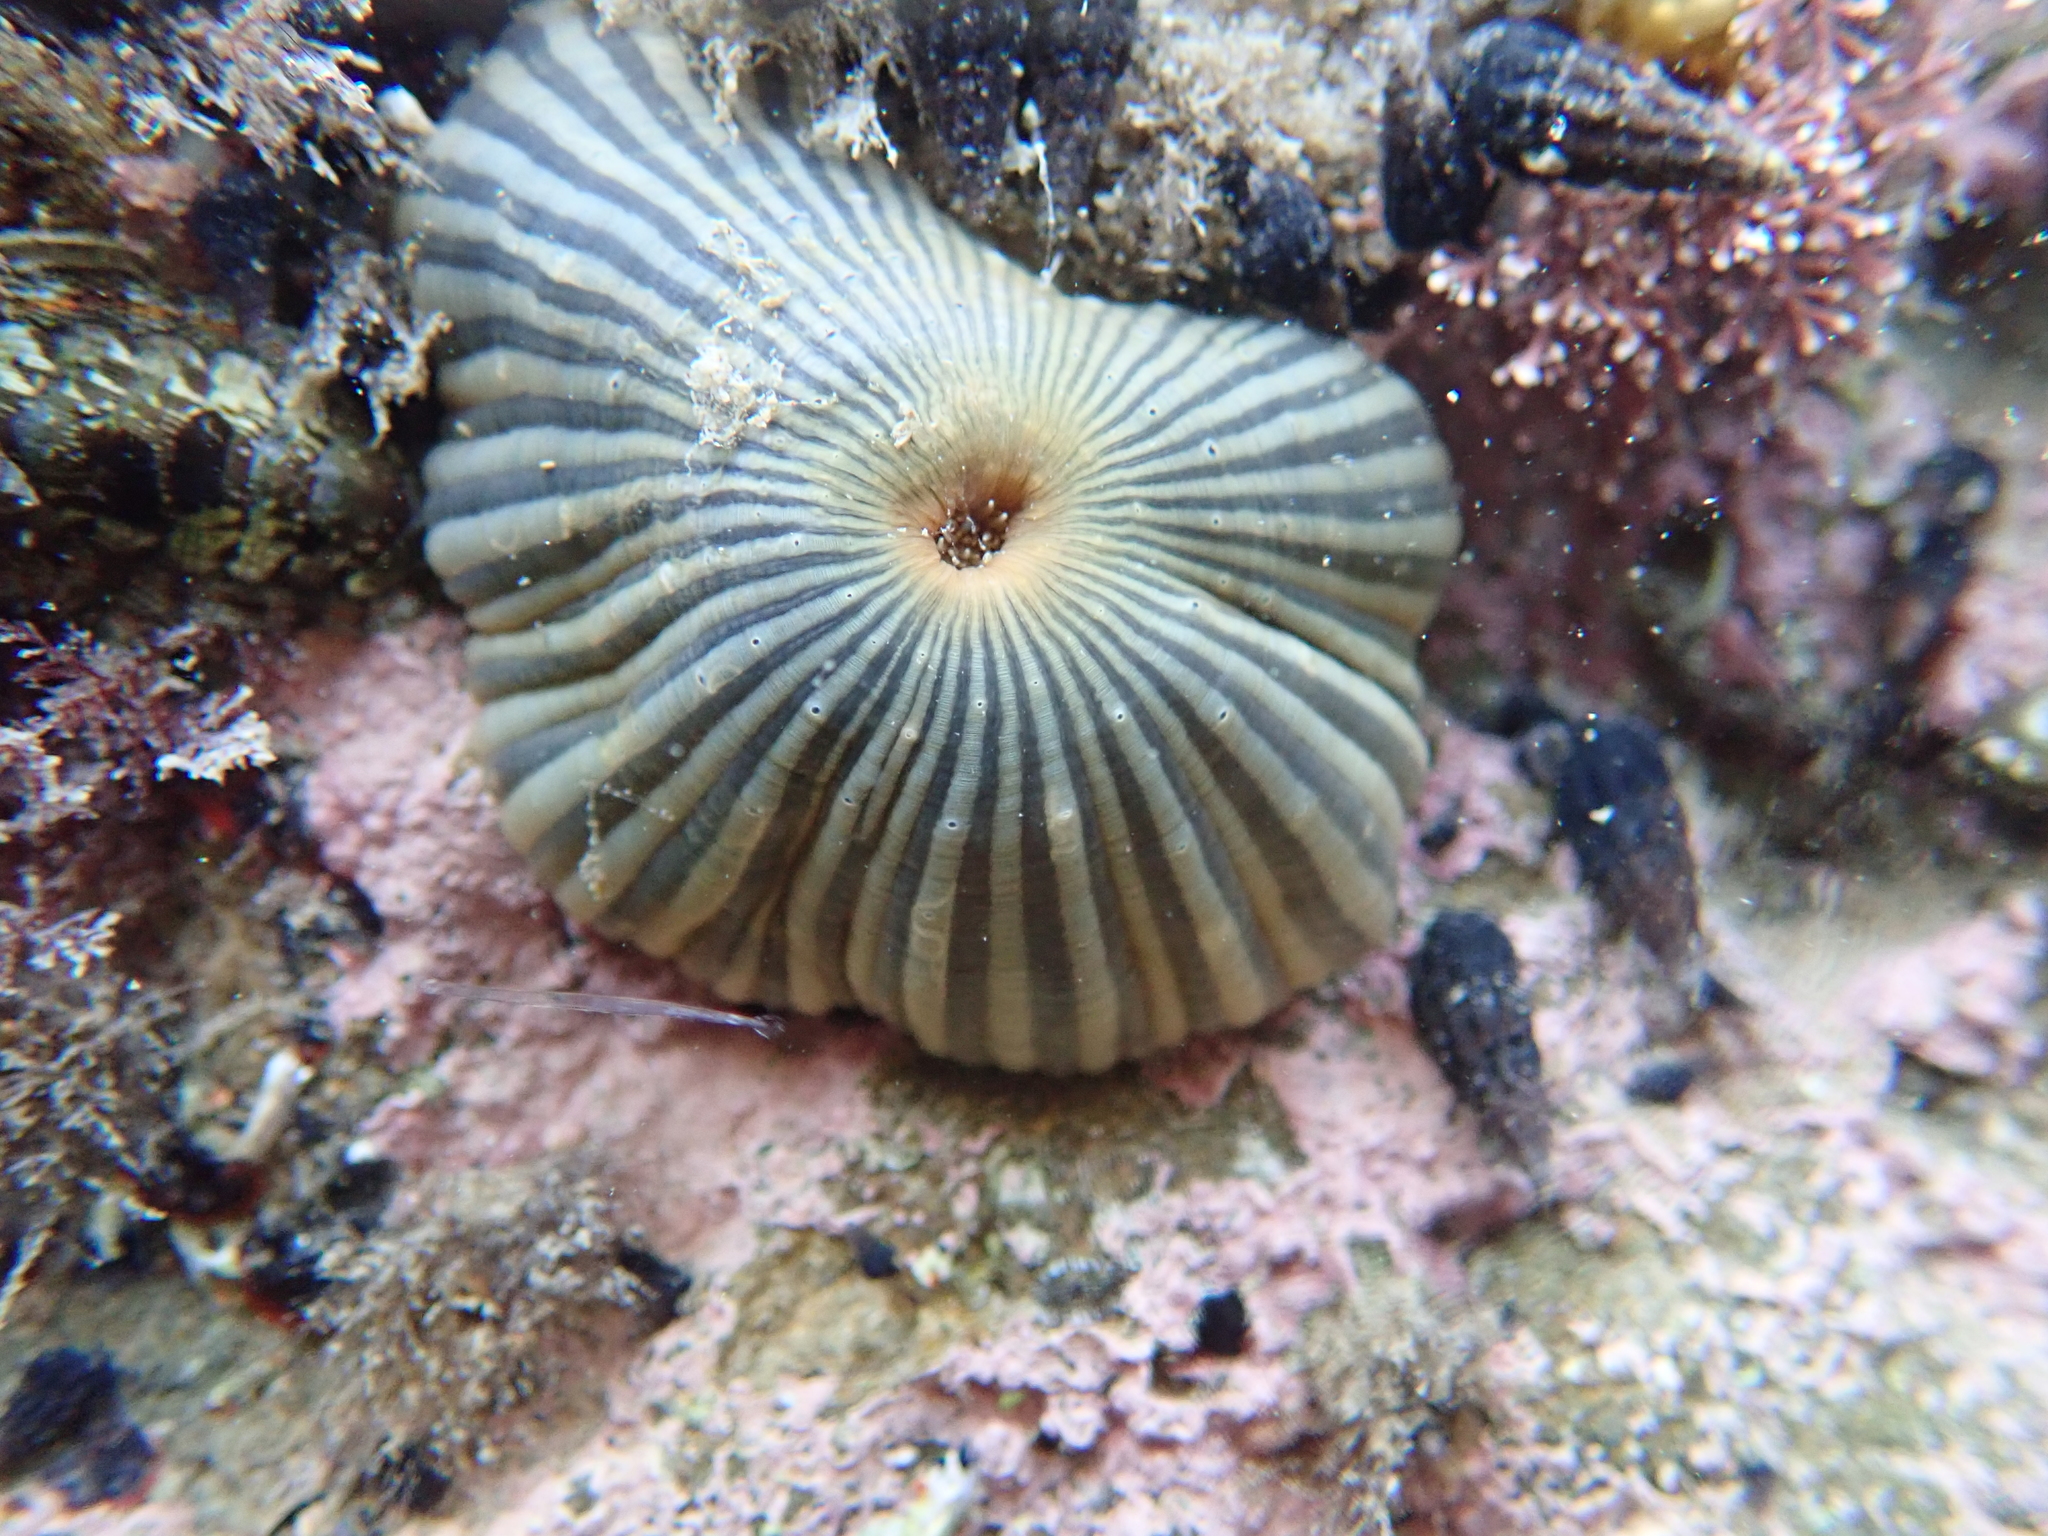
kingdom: Animalia
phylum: Cnidaria
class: Anthozoa
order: Actiniaria
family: Diadumenidae
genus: Diadumene
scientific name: Diadumene neozelanica
